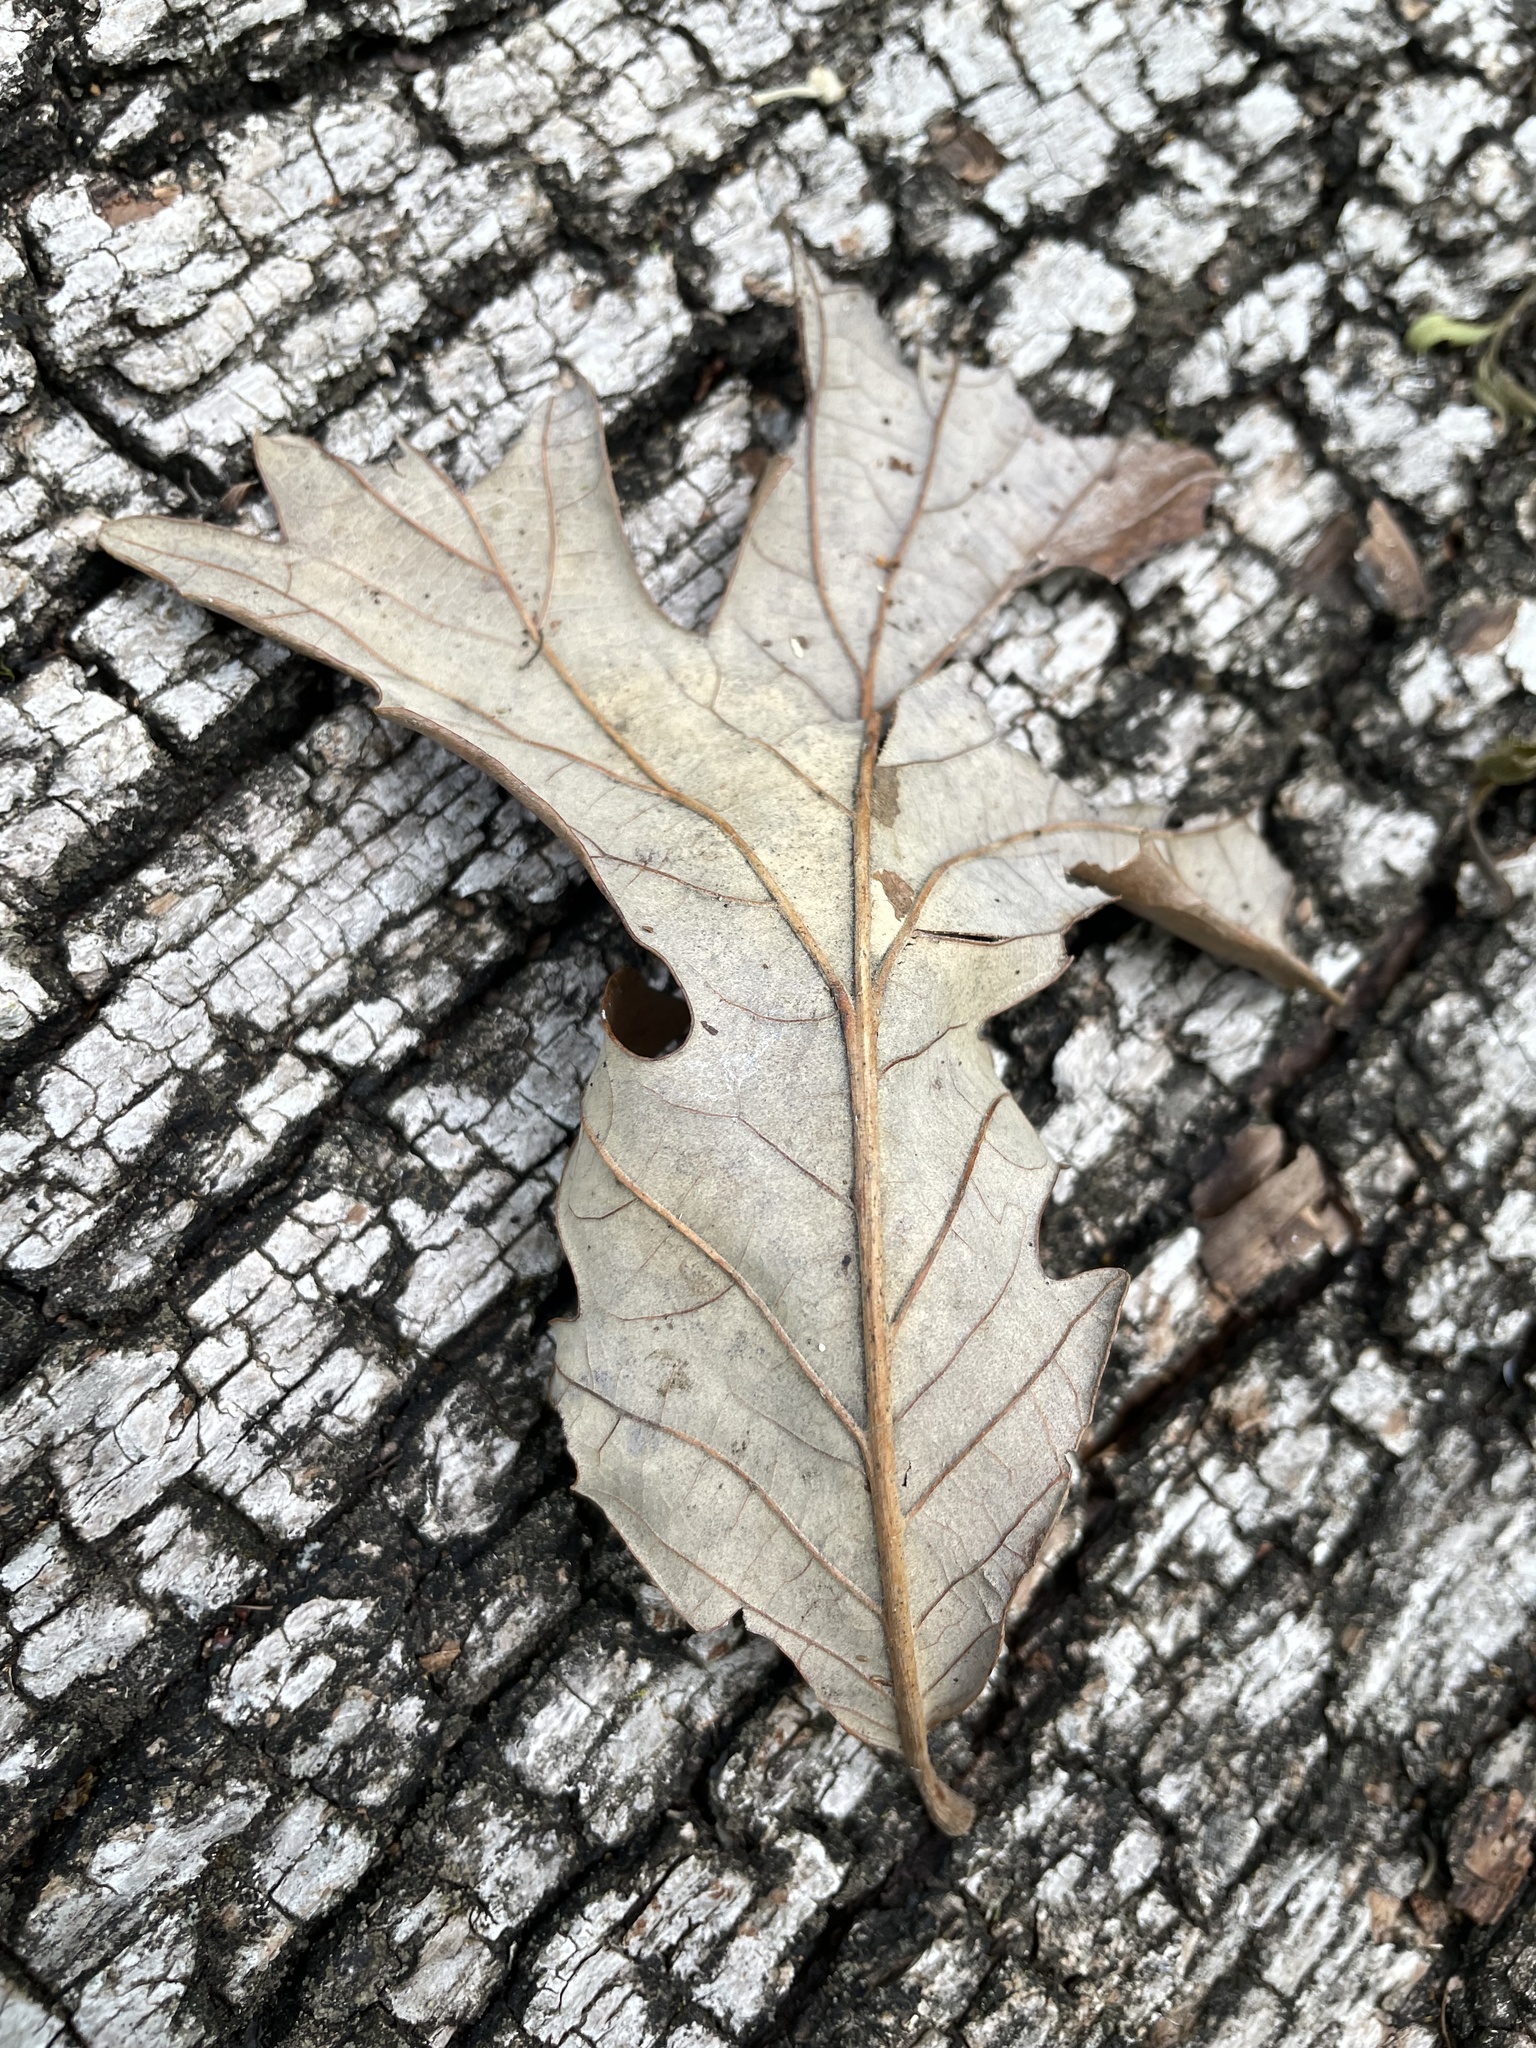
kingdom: Plantae
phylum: Tracheophyta
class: Magnoliopsida
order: Fagales
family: Fagaceae
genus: Quercus
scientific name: Quercus macrocarpa
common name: Bur oak
